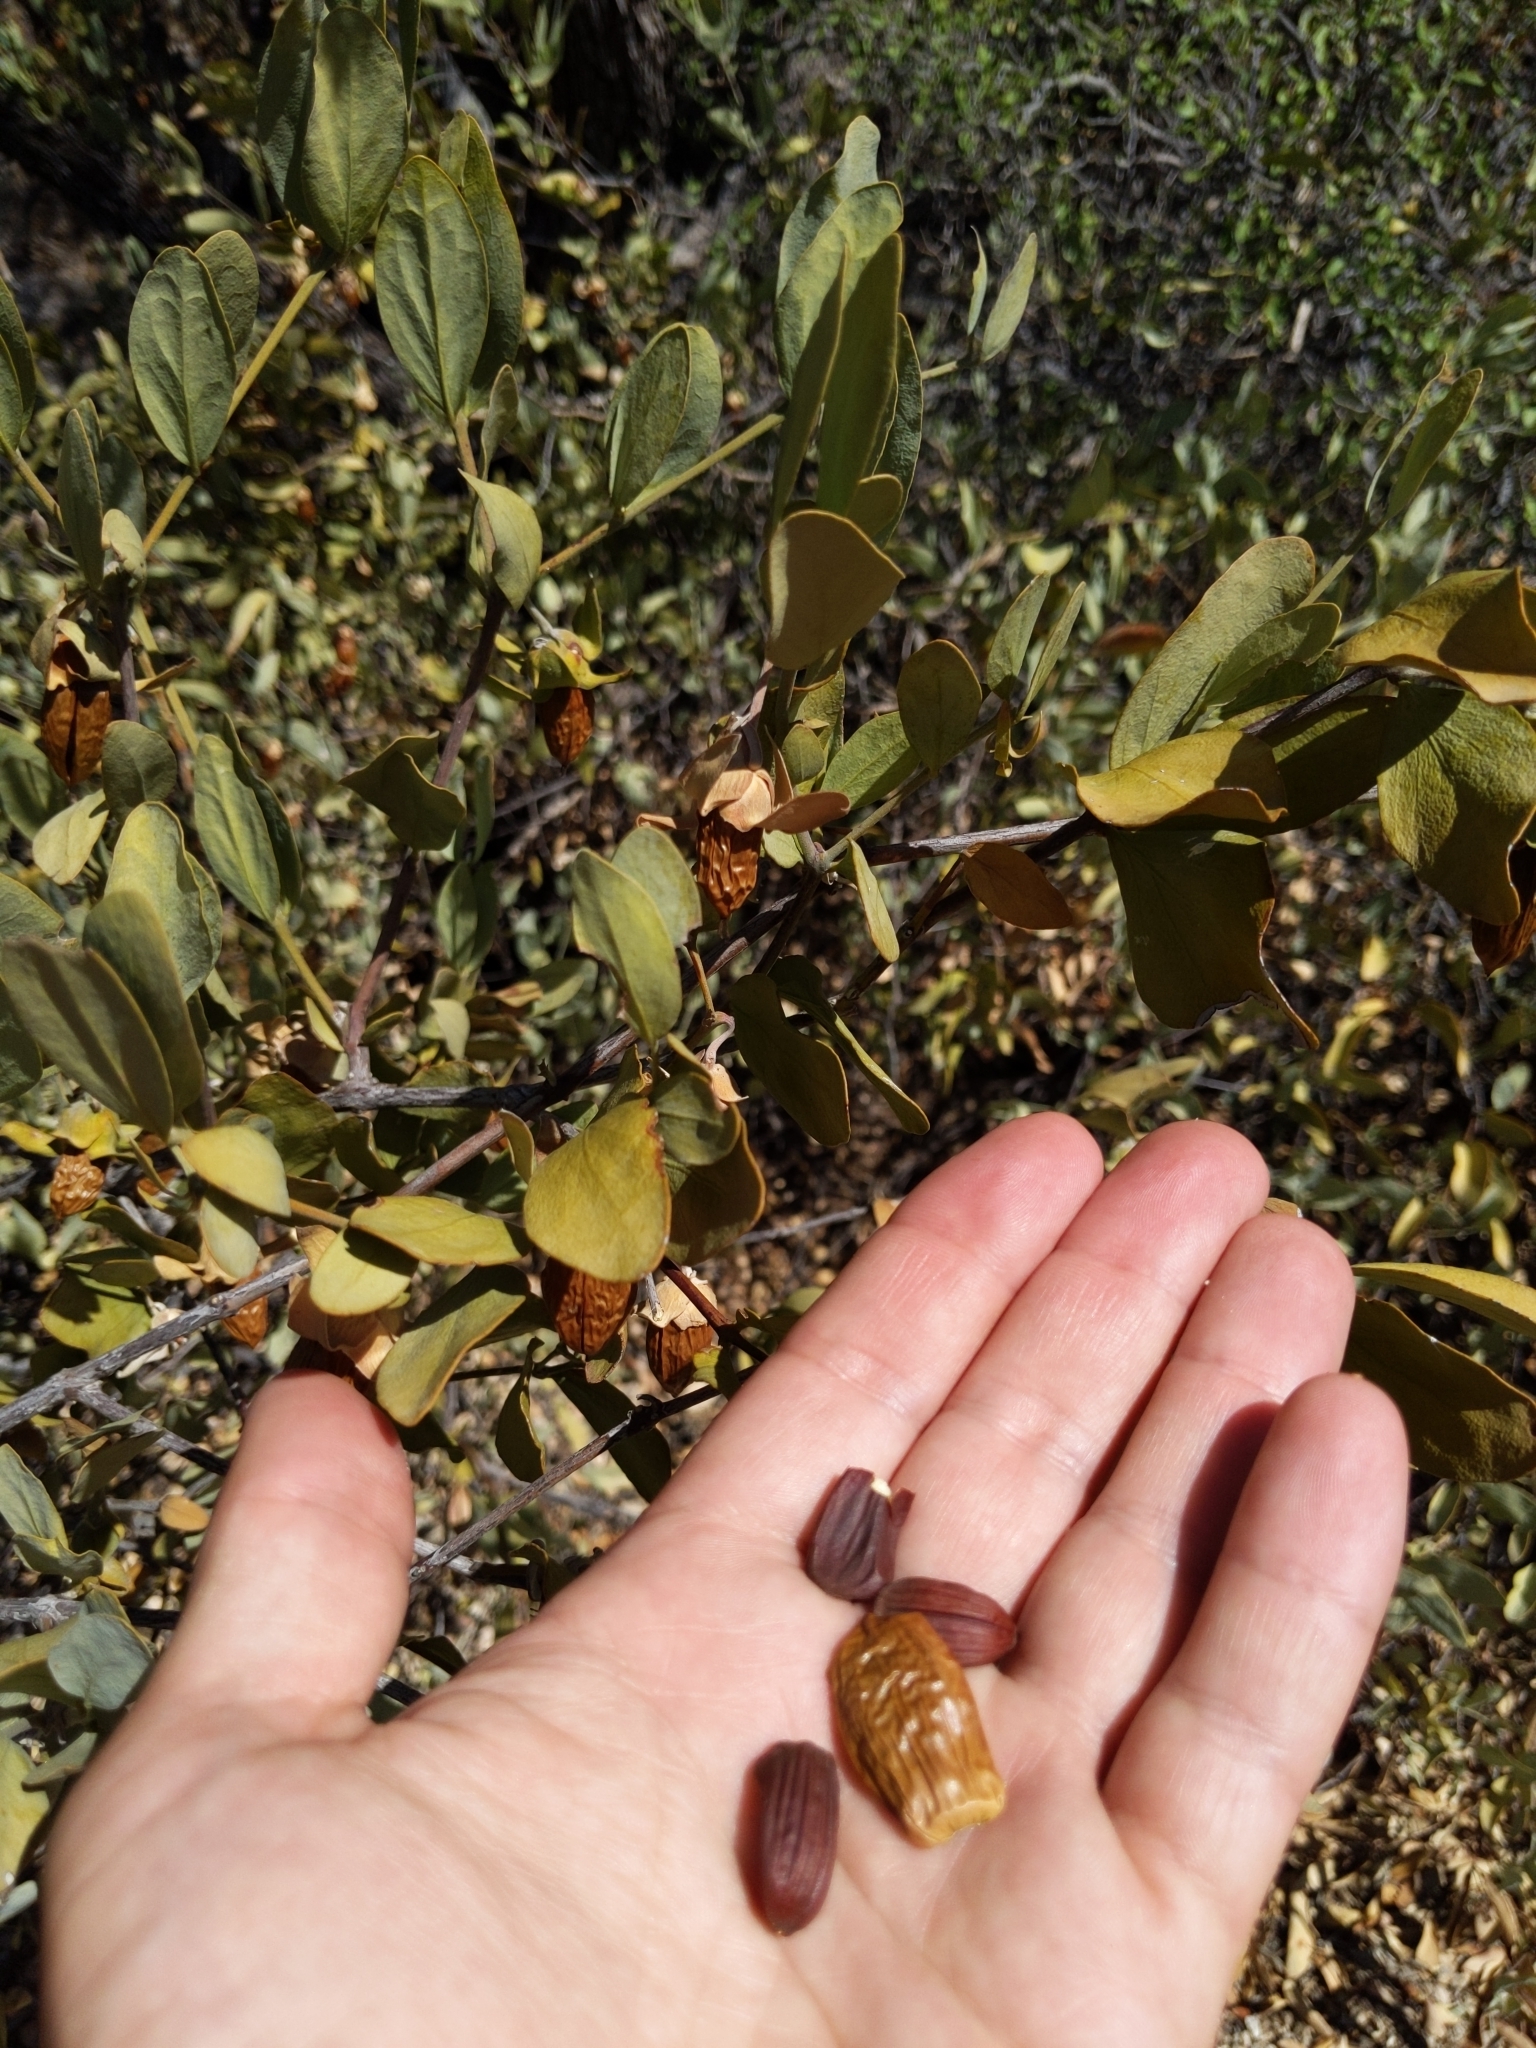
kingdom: Plantae
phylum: Tracheophyta
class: Magnoliopsida
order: Caryophyllales
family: Simmondsiaceae
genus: Simmondsia
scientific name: Simmondsia chinensis
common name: Jojoba
